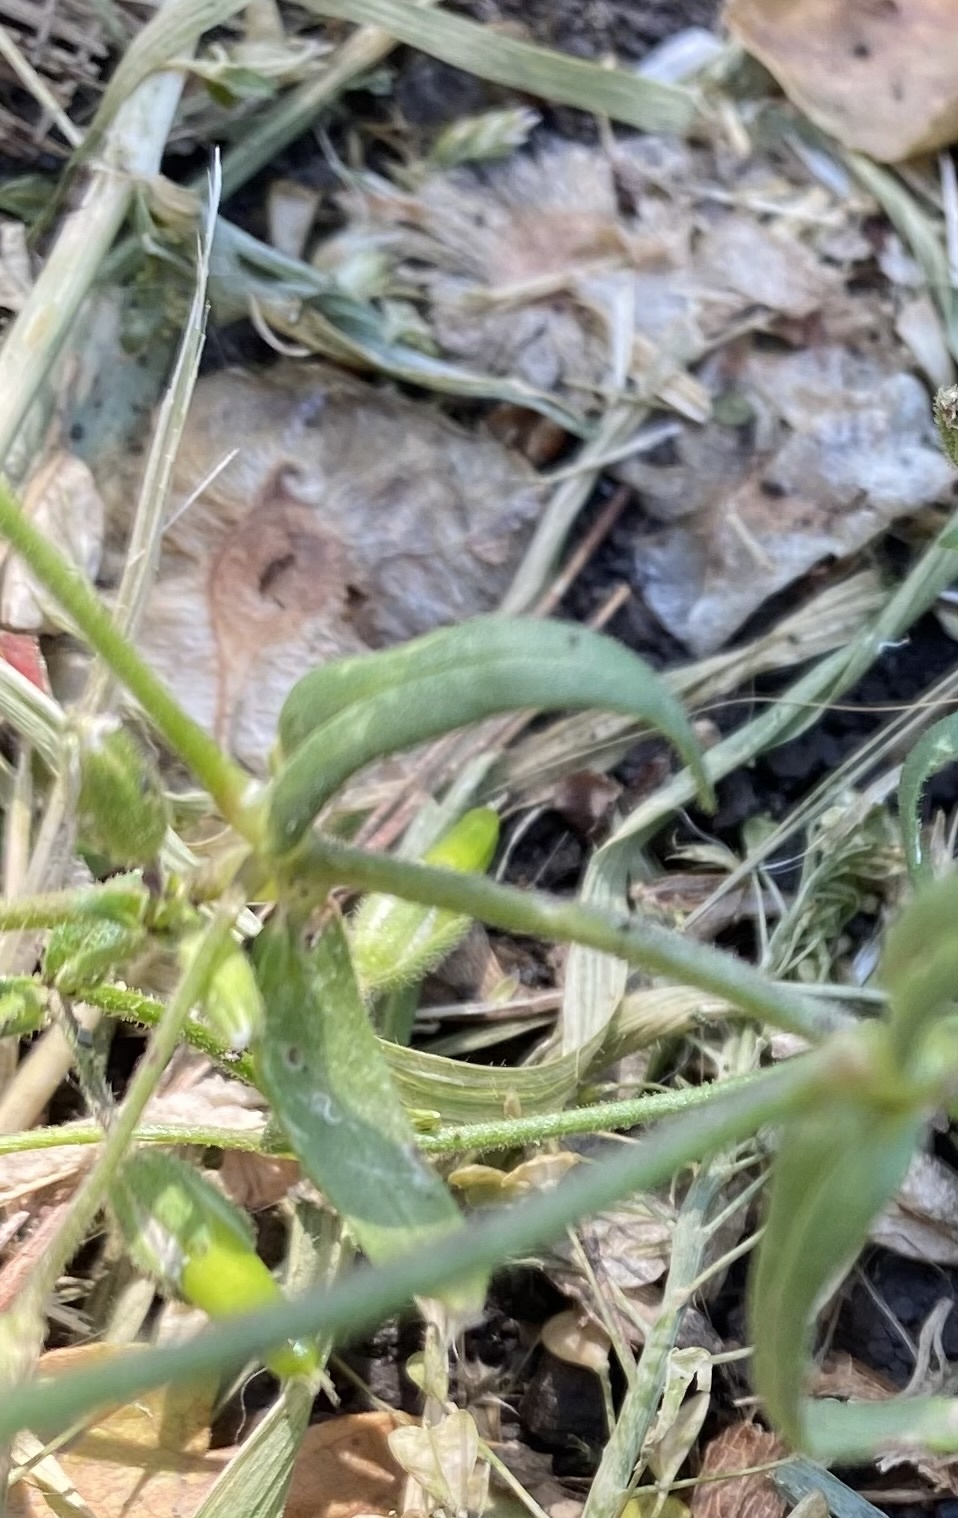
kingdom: Plantae
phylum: Tracheophyta
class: Magnoliopsida
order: Caryophyllales
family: Caryophyllaceae
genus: Dichodon
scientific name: Dichodon viscidum
